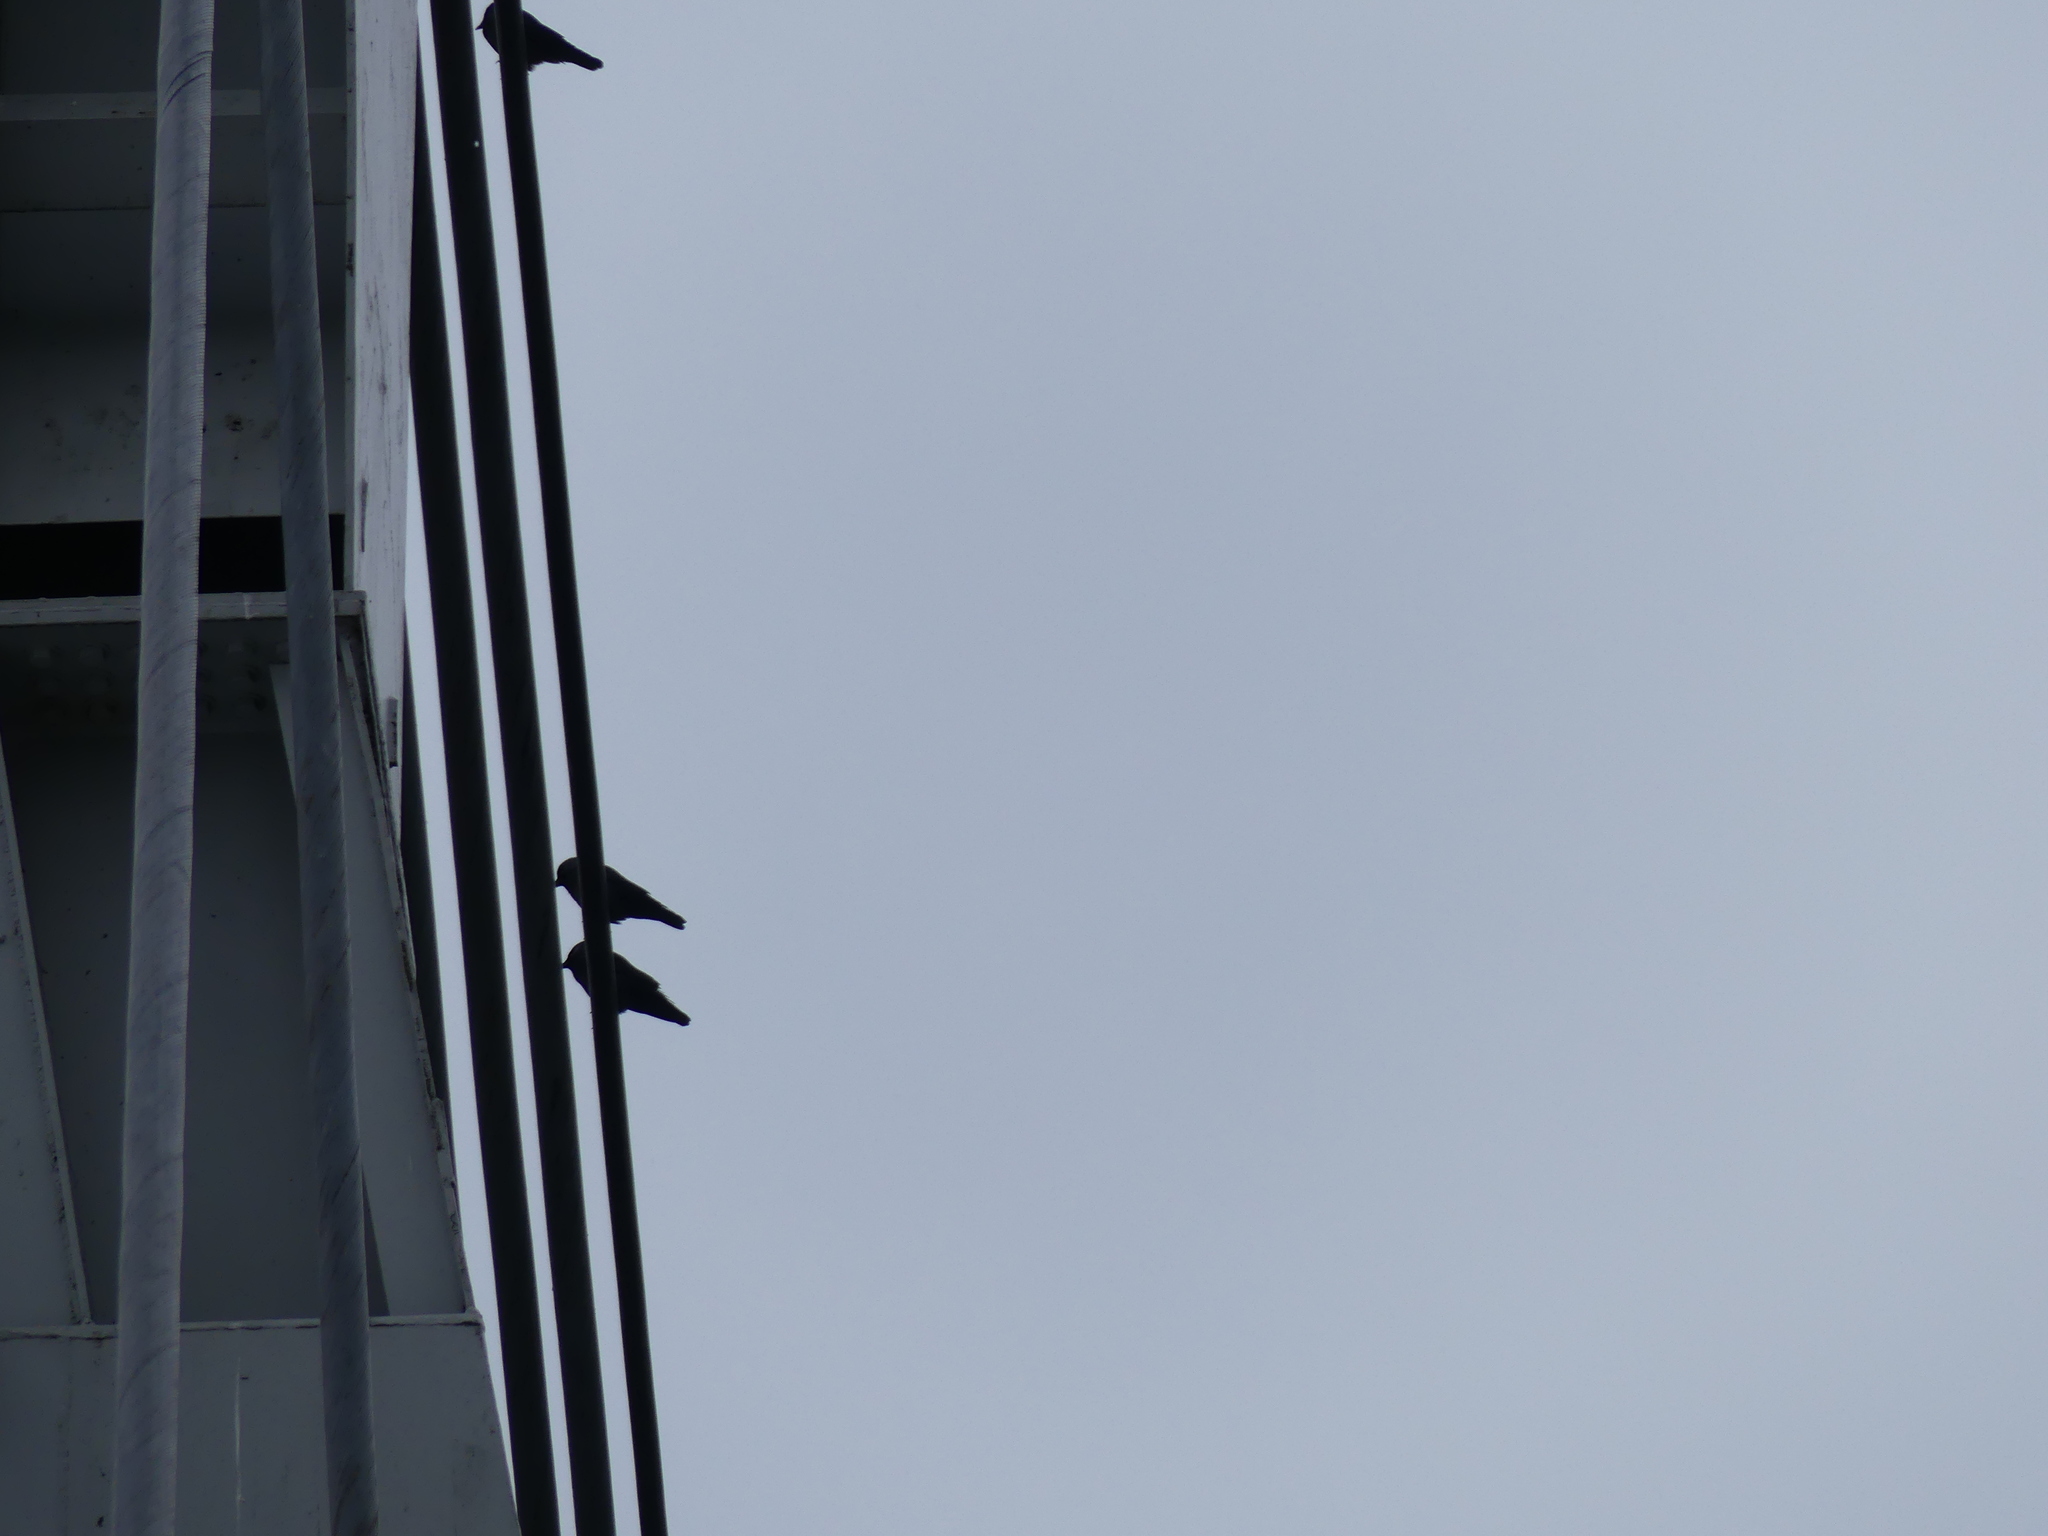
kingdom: Animalia
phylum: Chordata
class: Aves
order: Passeriformes
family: Corvidae
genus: Coloeus
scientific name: Coloeus monedula
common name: Western jackdaw
